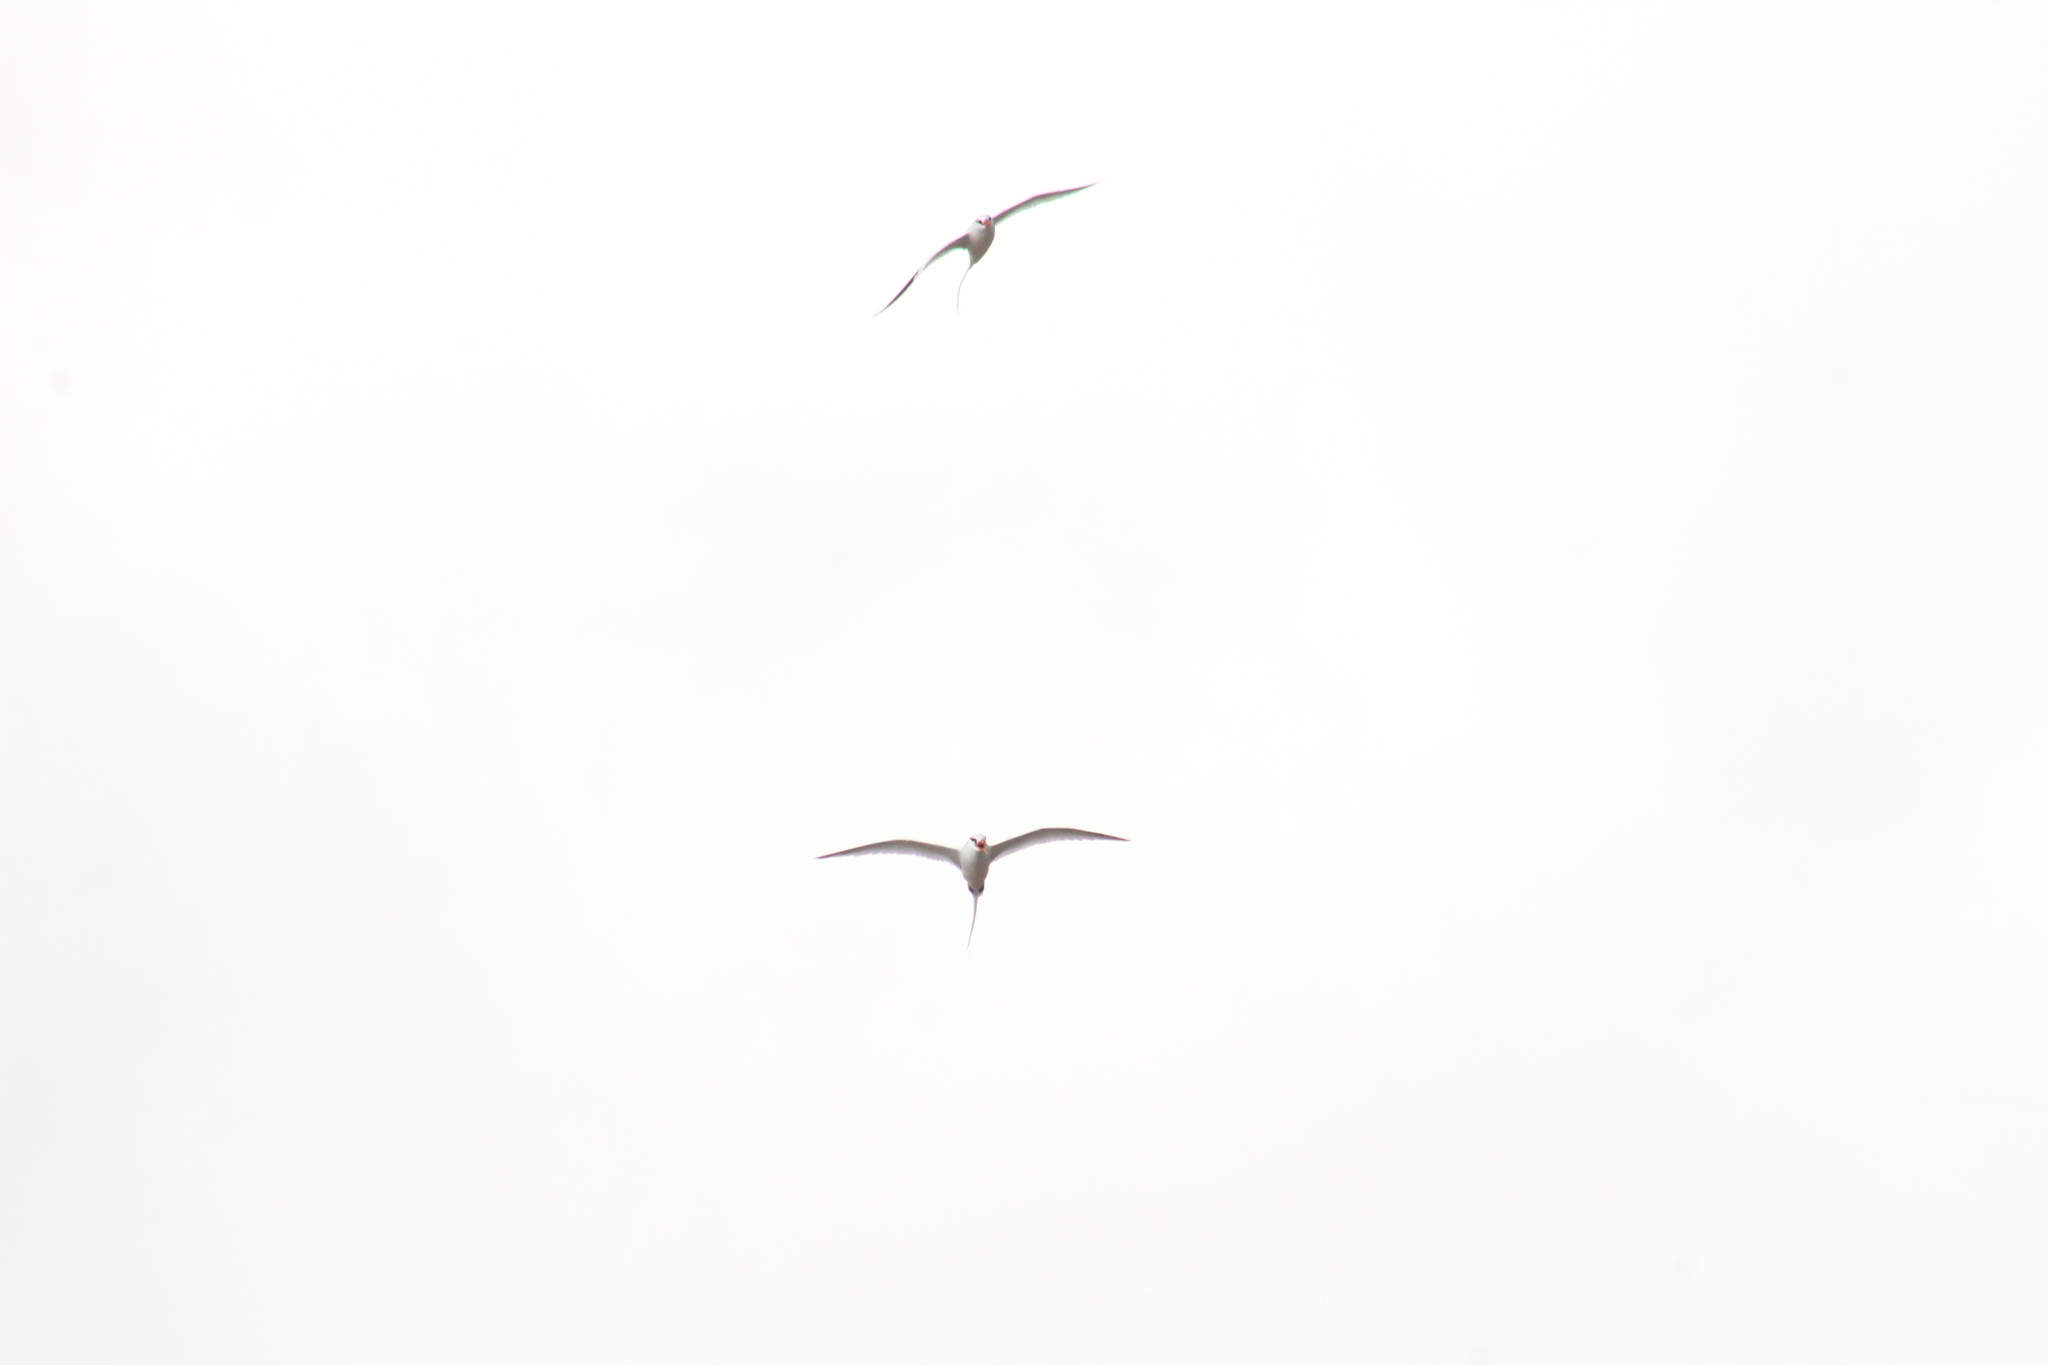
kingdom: Animalia
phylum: Chordata
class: Aves
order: Phaethontiformes
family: Phaethontidae
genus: Phaethon
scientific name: Phaethon aethereus
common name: Red-billed tropicbird
